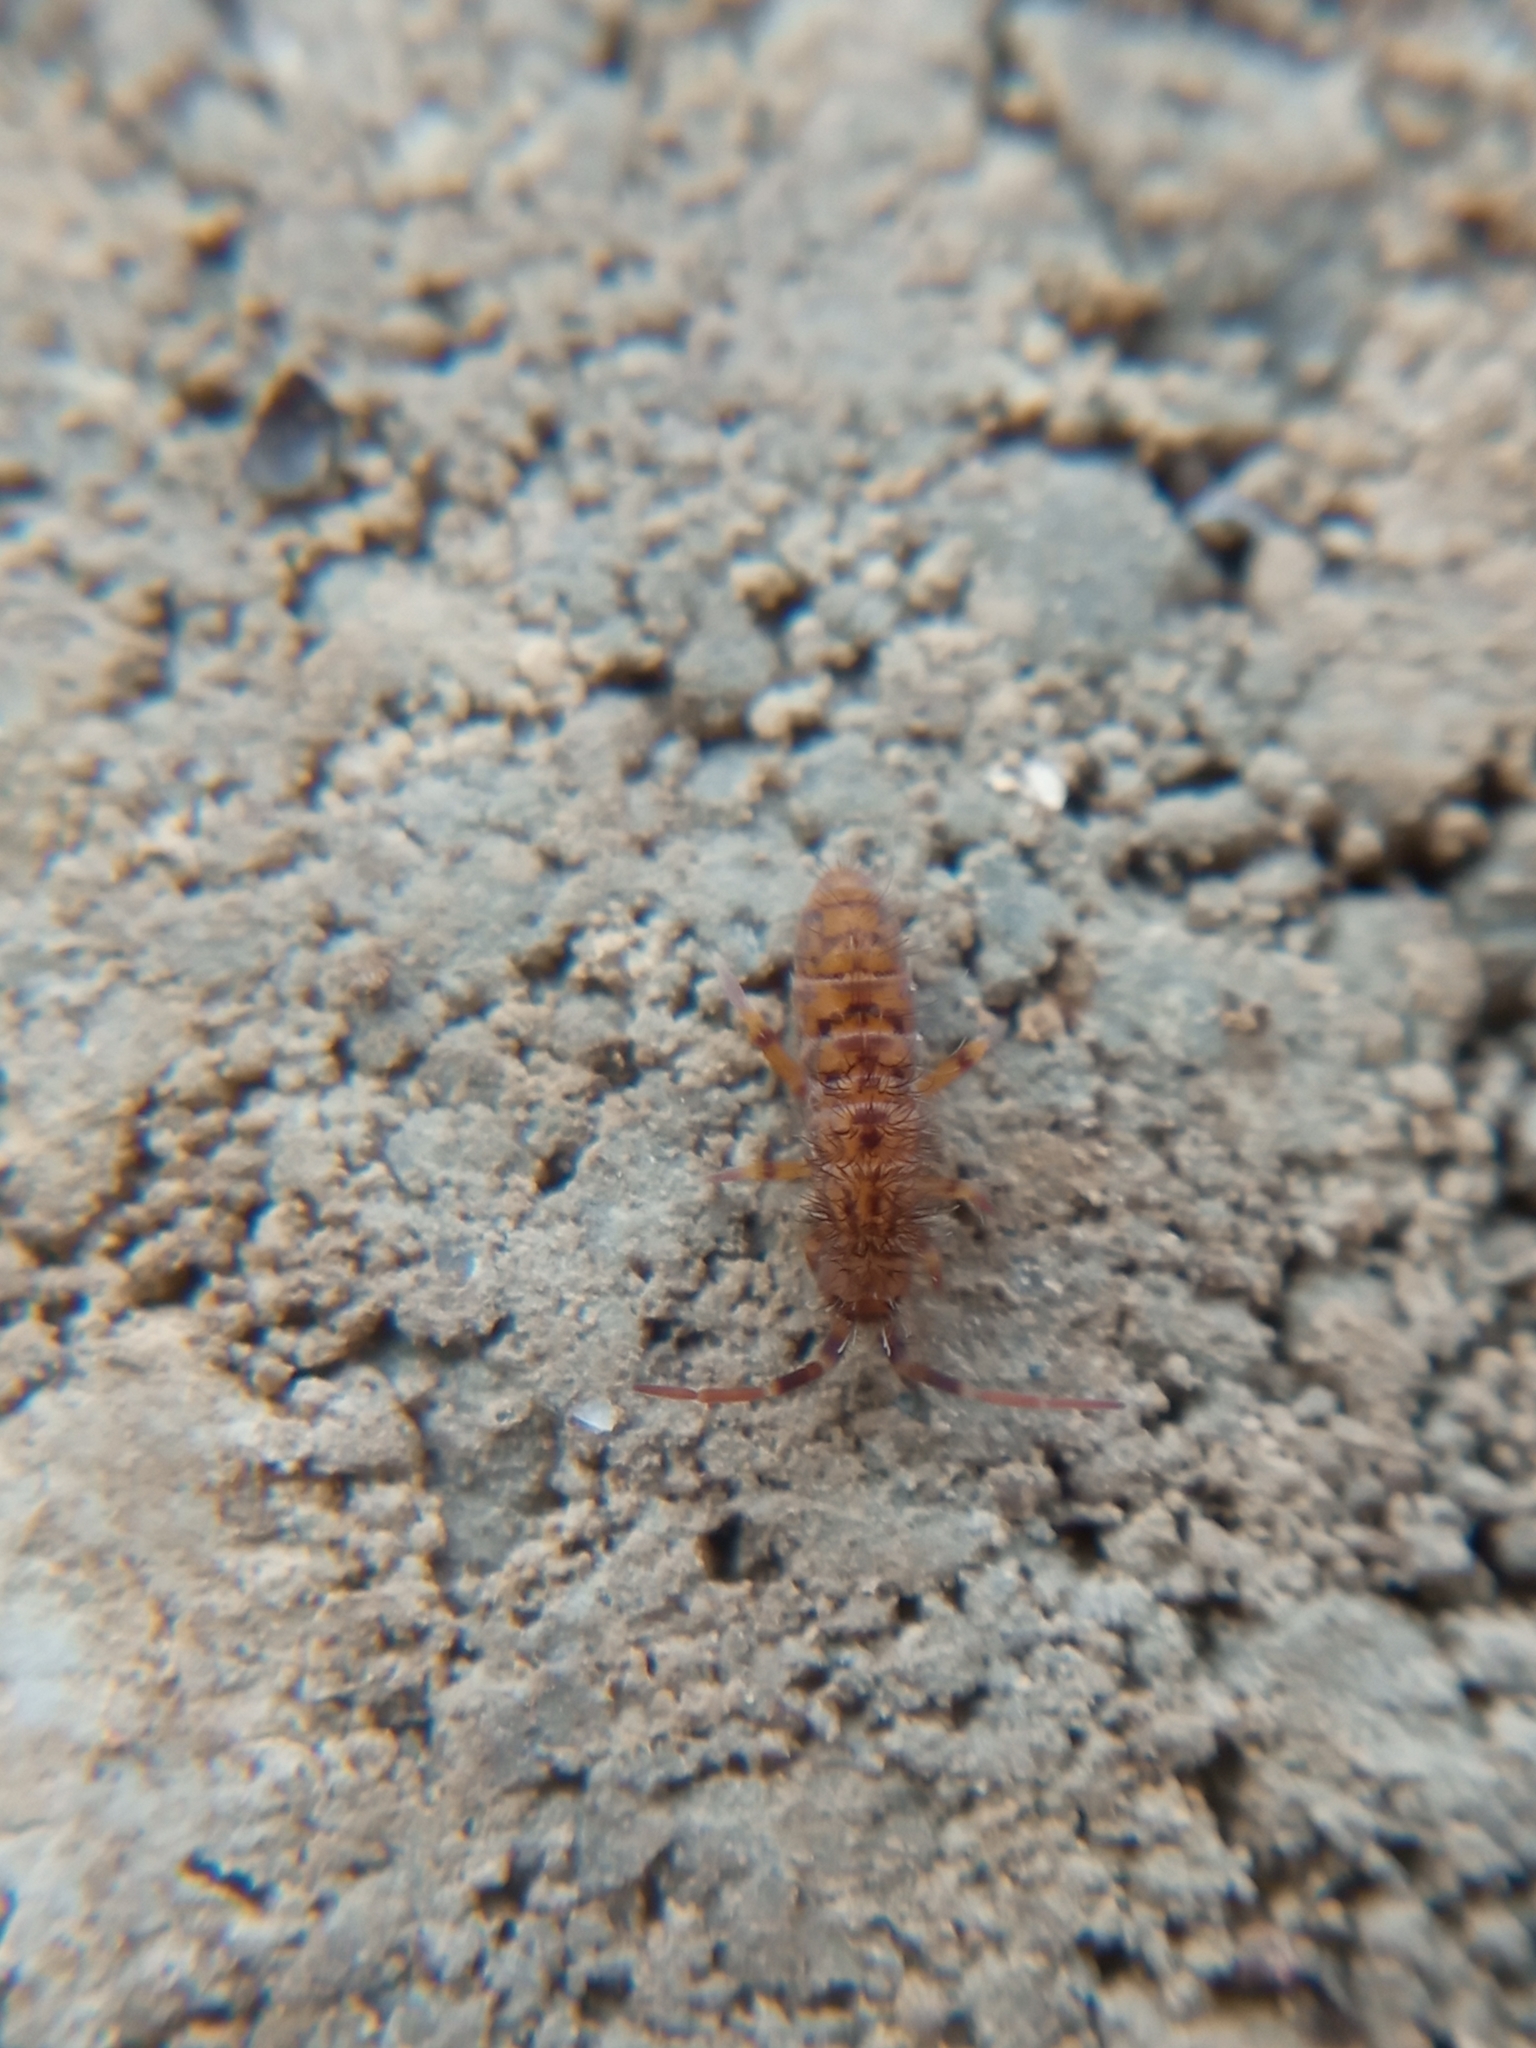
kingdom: Animalia
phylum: Arthropoda
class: Collembola
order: Entomobryomorpha
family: Orchesellidae
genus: Orchesella
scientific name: Orchesella villosa
